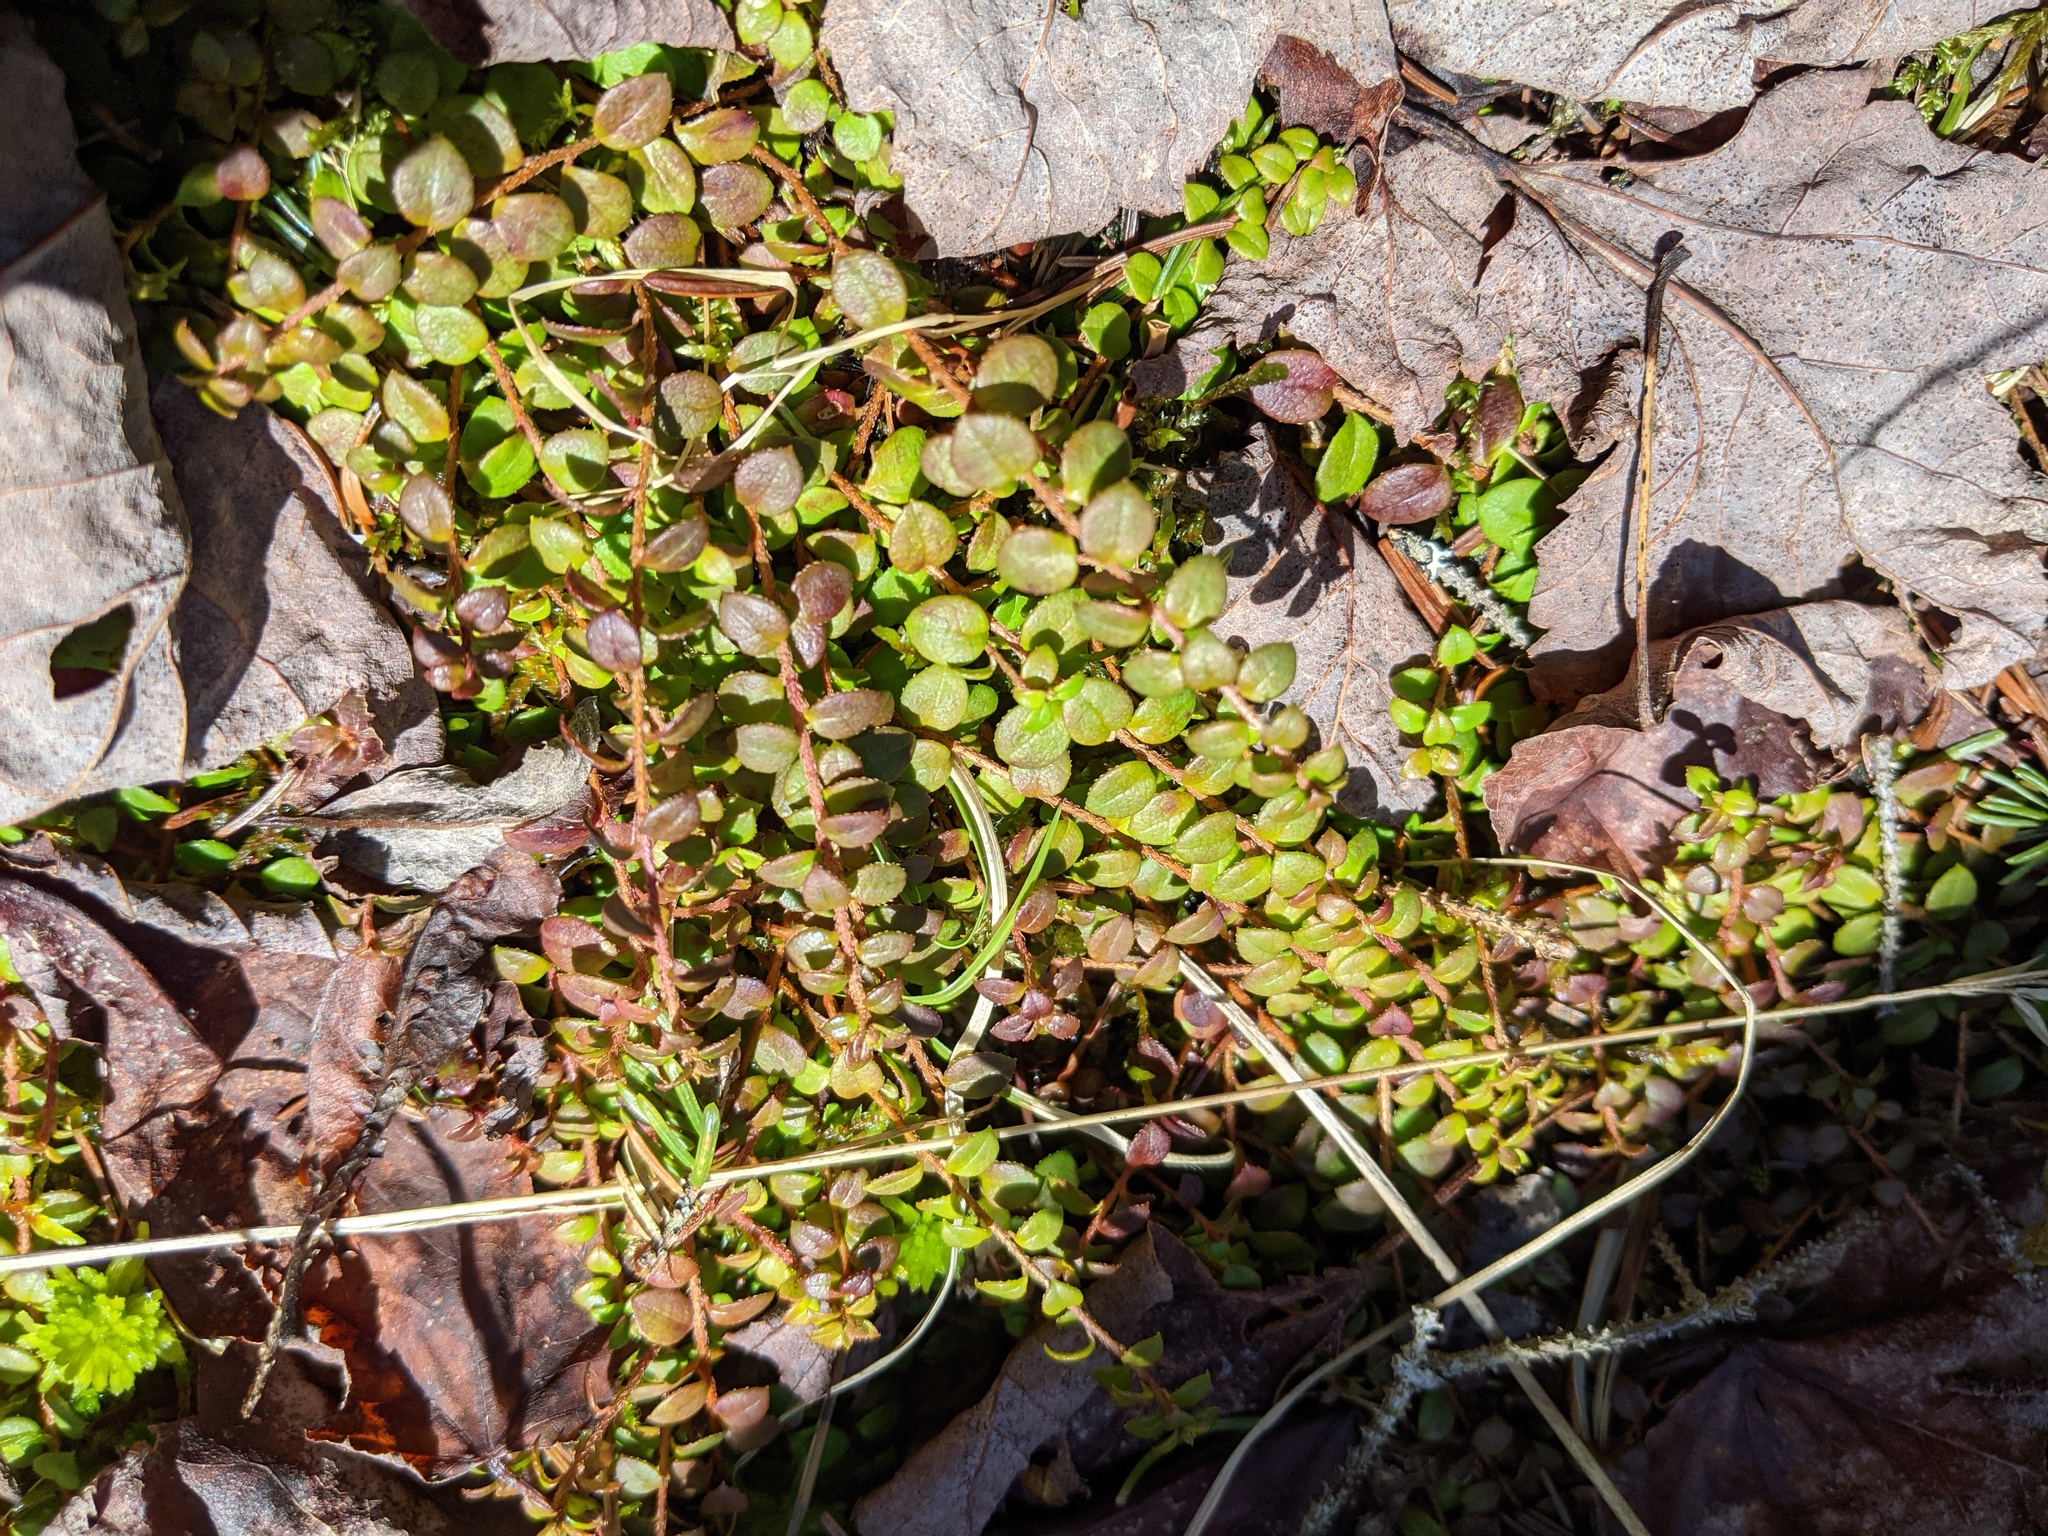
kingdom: Plantae
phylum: Tracheophyta
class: Magnoliopsida
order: Ericales
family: Ericaceae
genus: Gaultheria
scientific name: Gaultheria hispidula
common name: Cancer wintergreen
